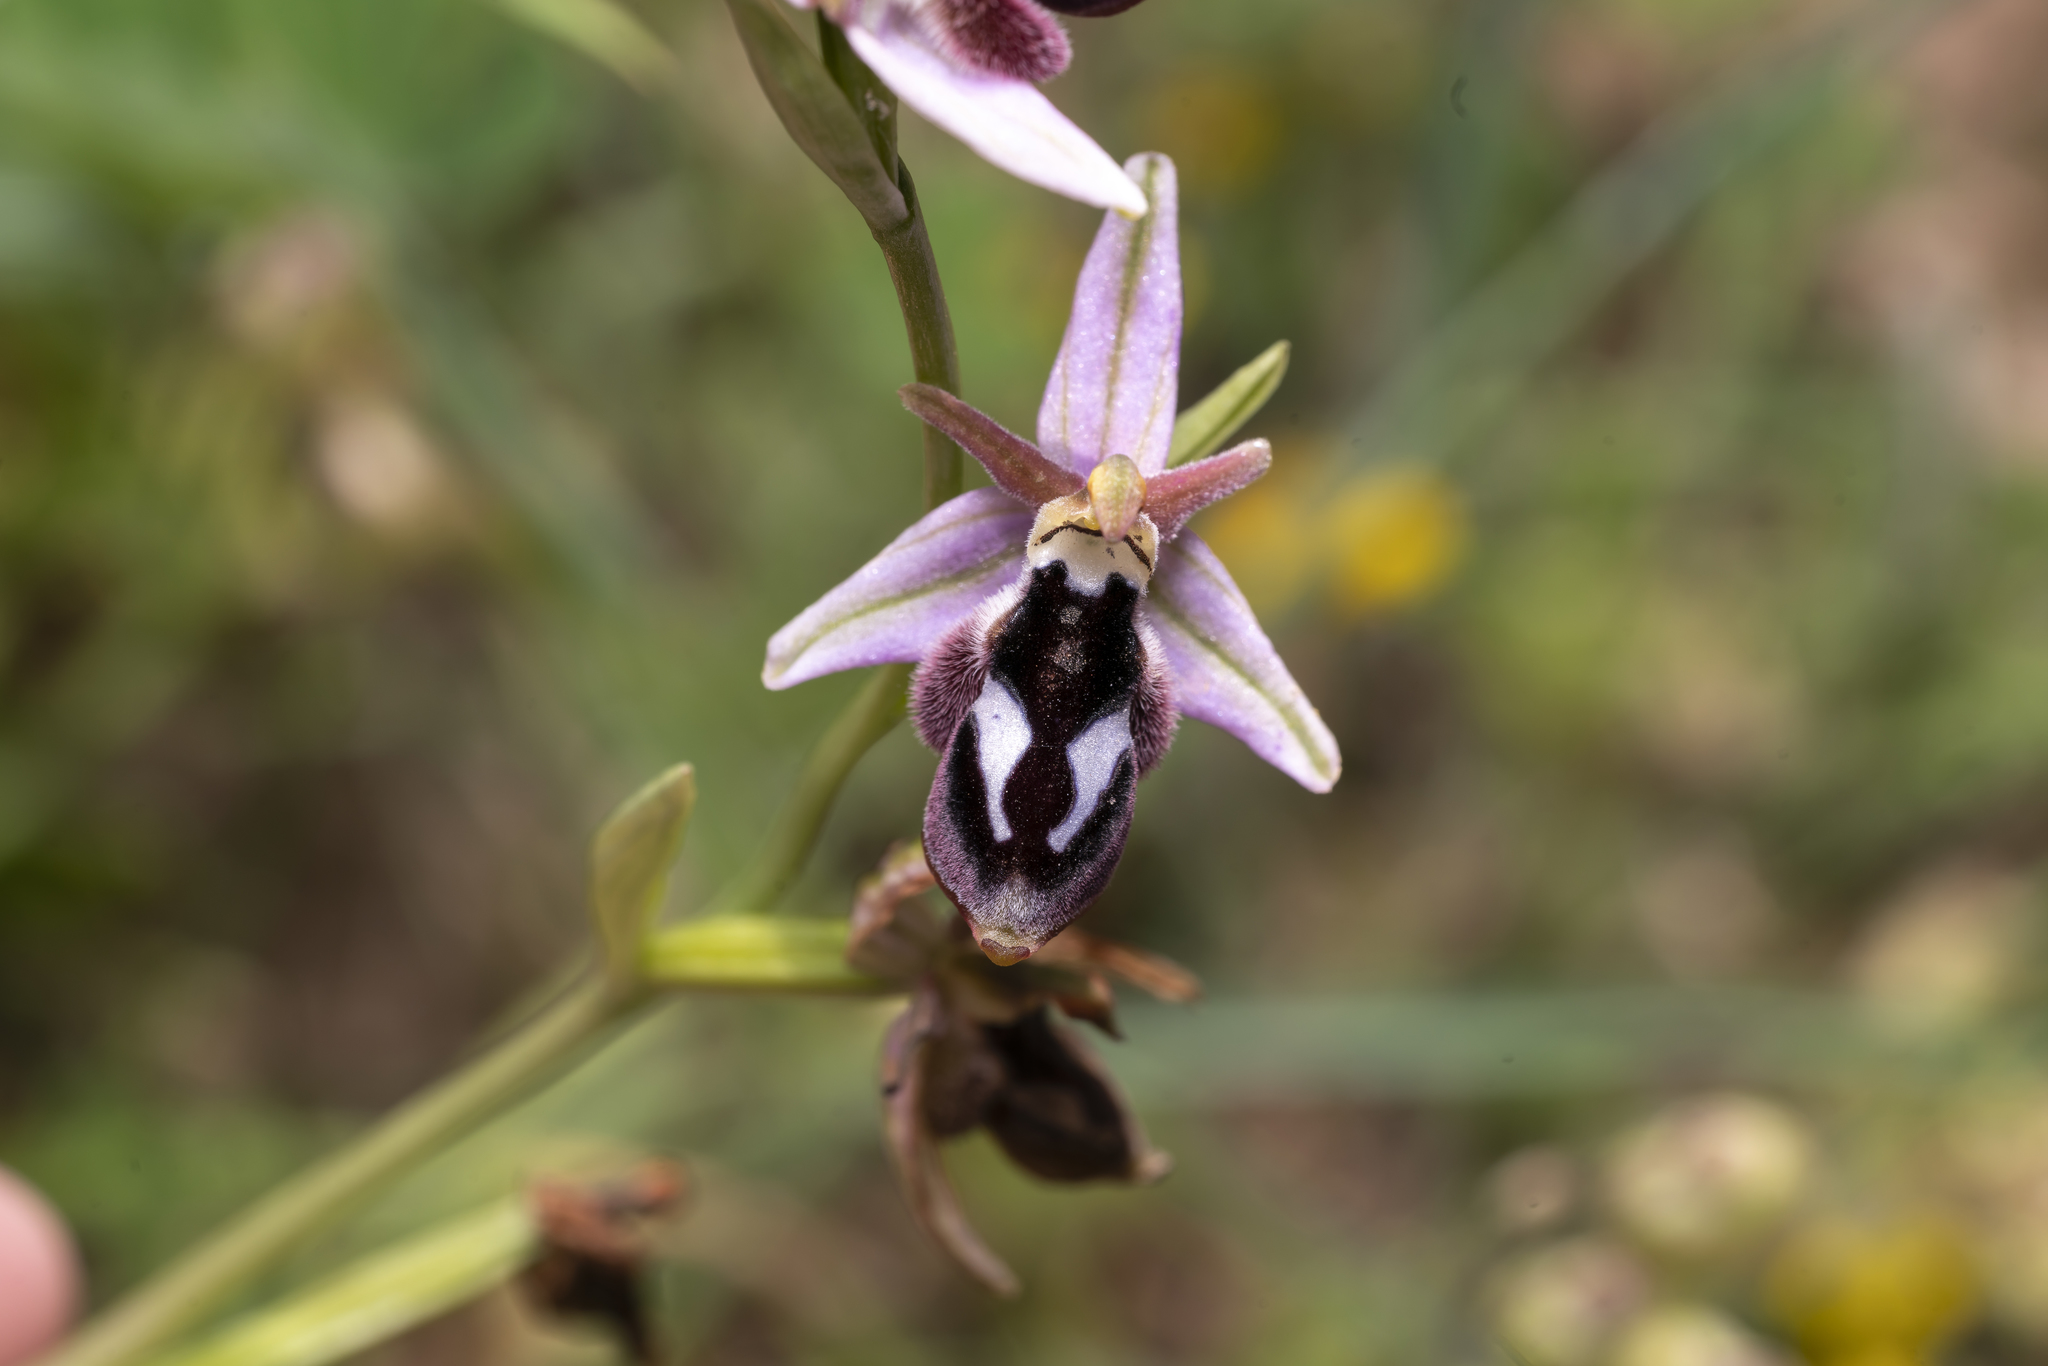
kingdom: Plantae
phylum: Tracheophyta
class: Liliopsida
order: Asparagales
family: Orchidaceae
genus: Ophrys
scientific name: Ophrys reinholdii
